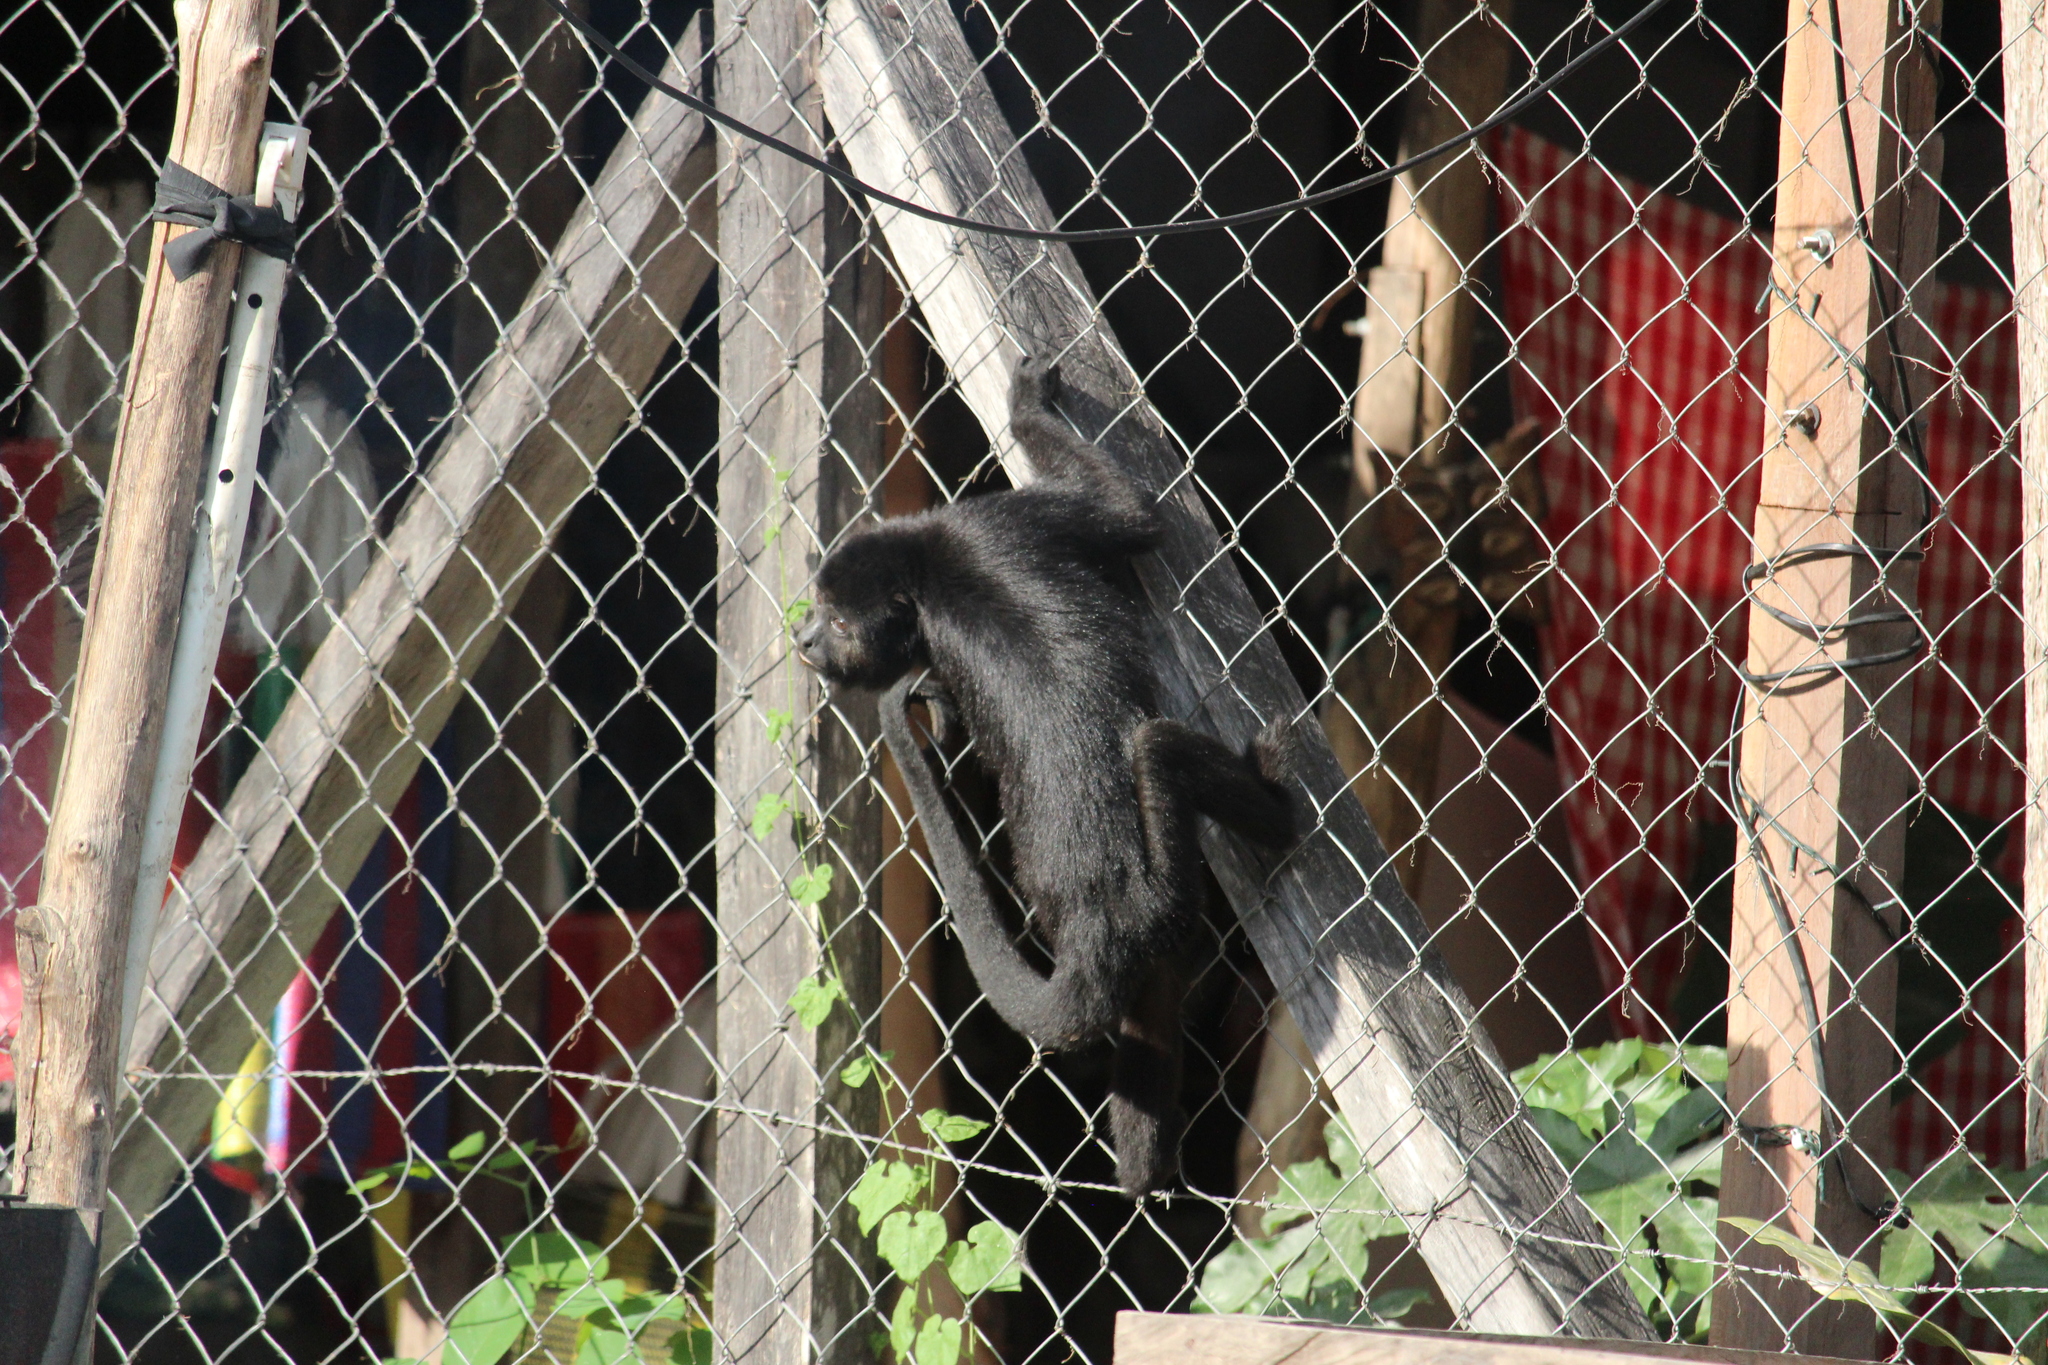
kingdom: Animalia
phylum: Chordata
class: Mammalia
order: Primates
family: Atelidae
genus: Alouatta
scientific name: Alouatta pigra
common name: Guatemalan black howler
